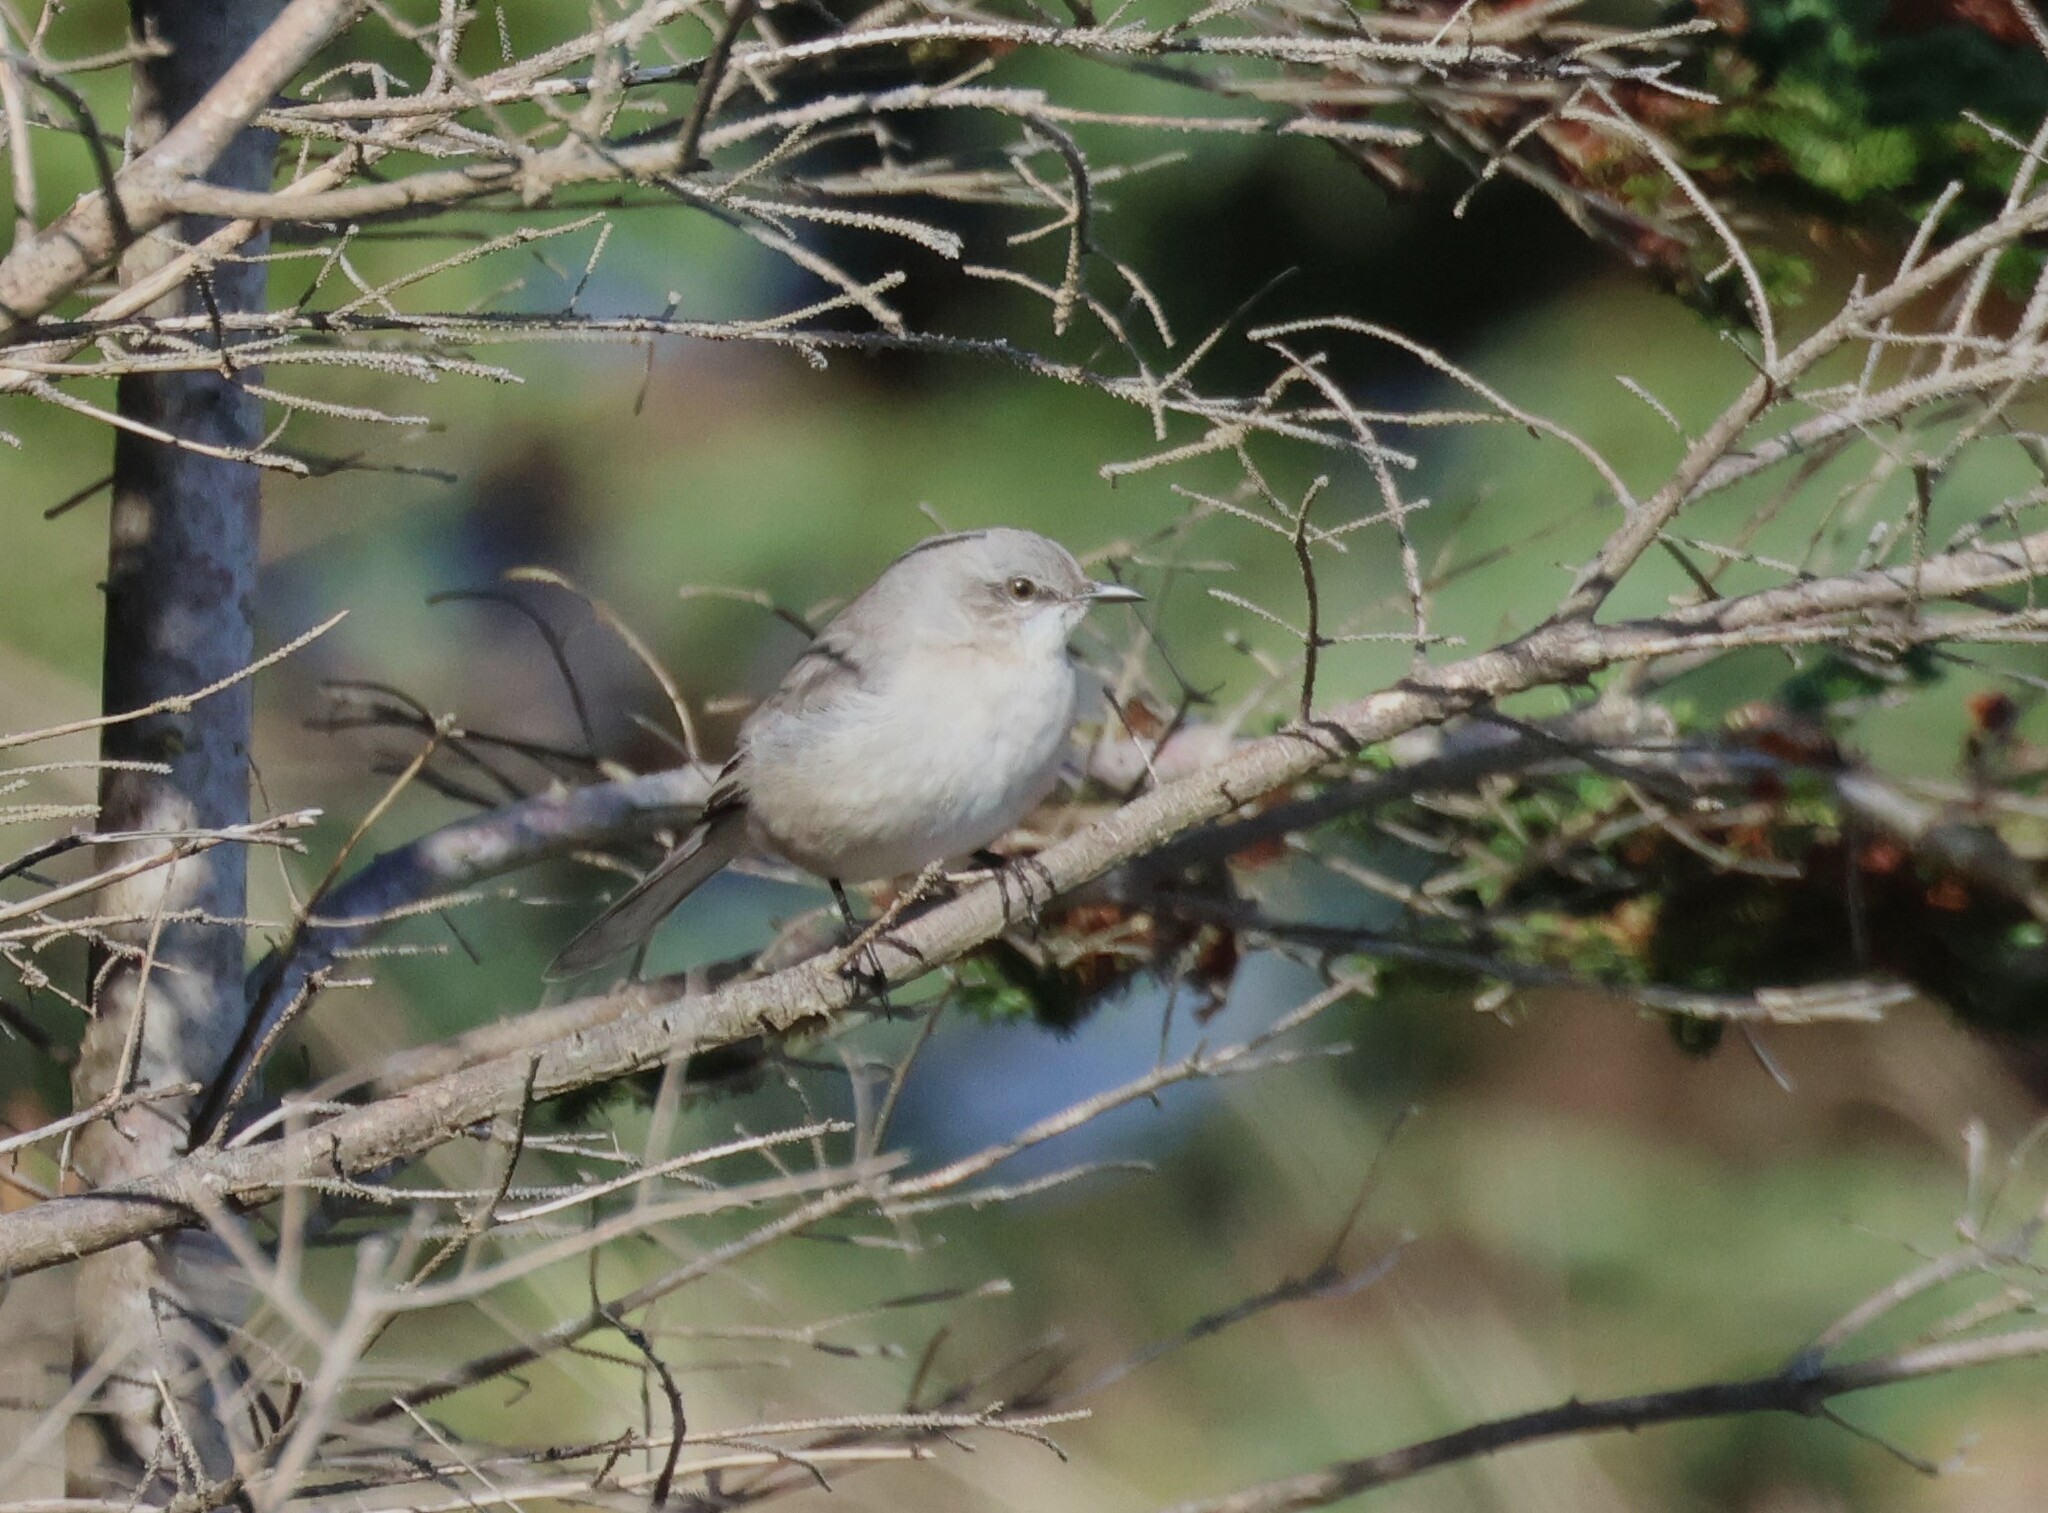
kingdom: Animalia
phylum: Chordata
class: Aves
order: Passeriformes
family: Mimidae
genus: Mimus
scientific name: Mimus polyglottos
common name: Northern mockingbird
